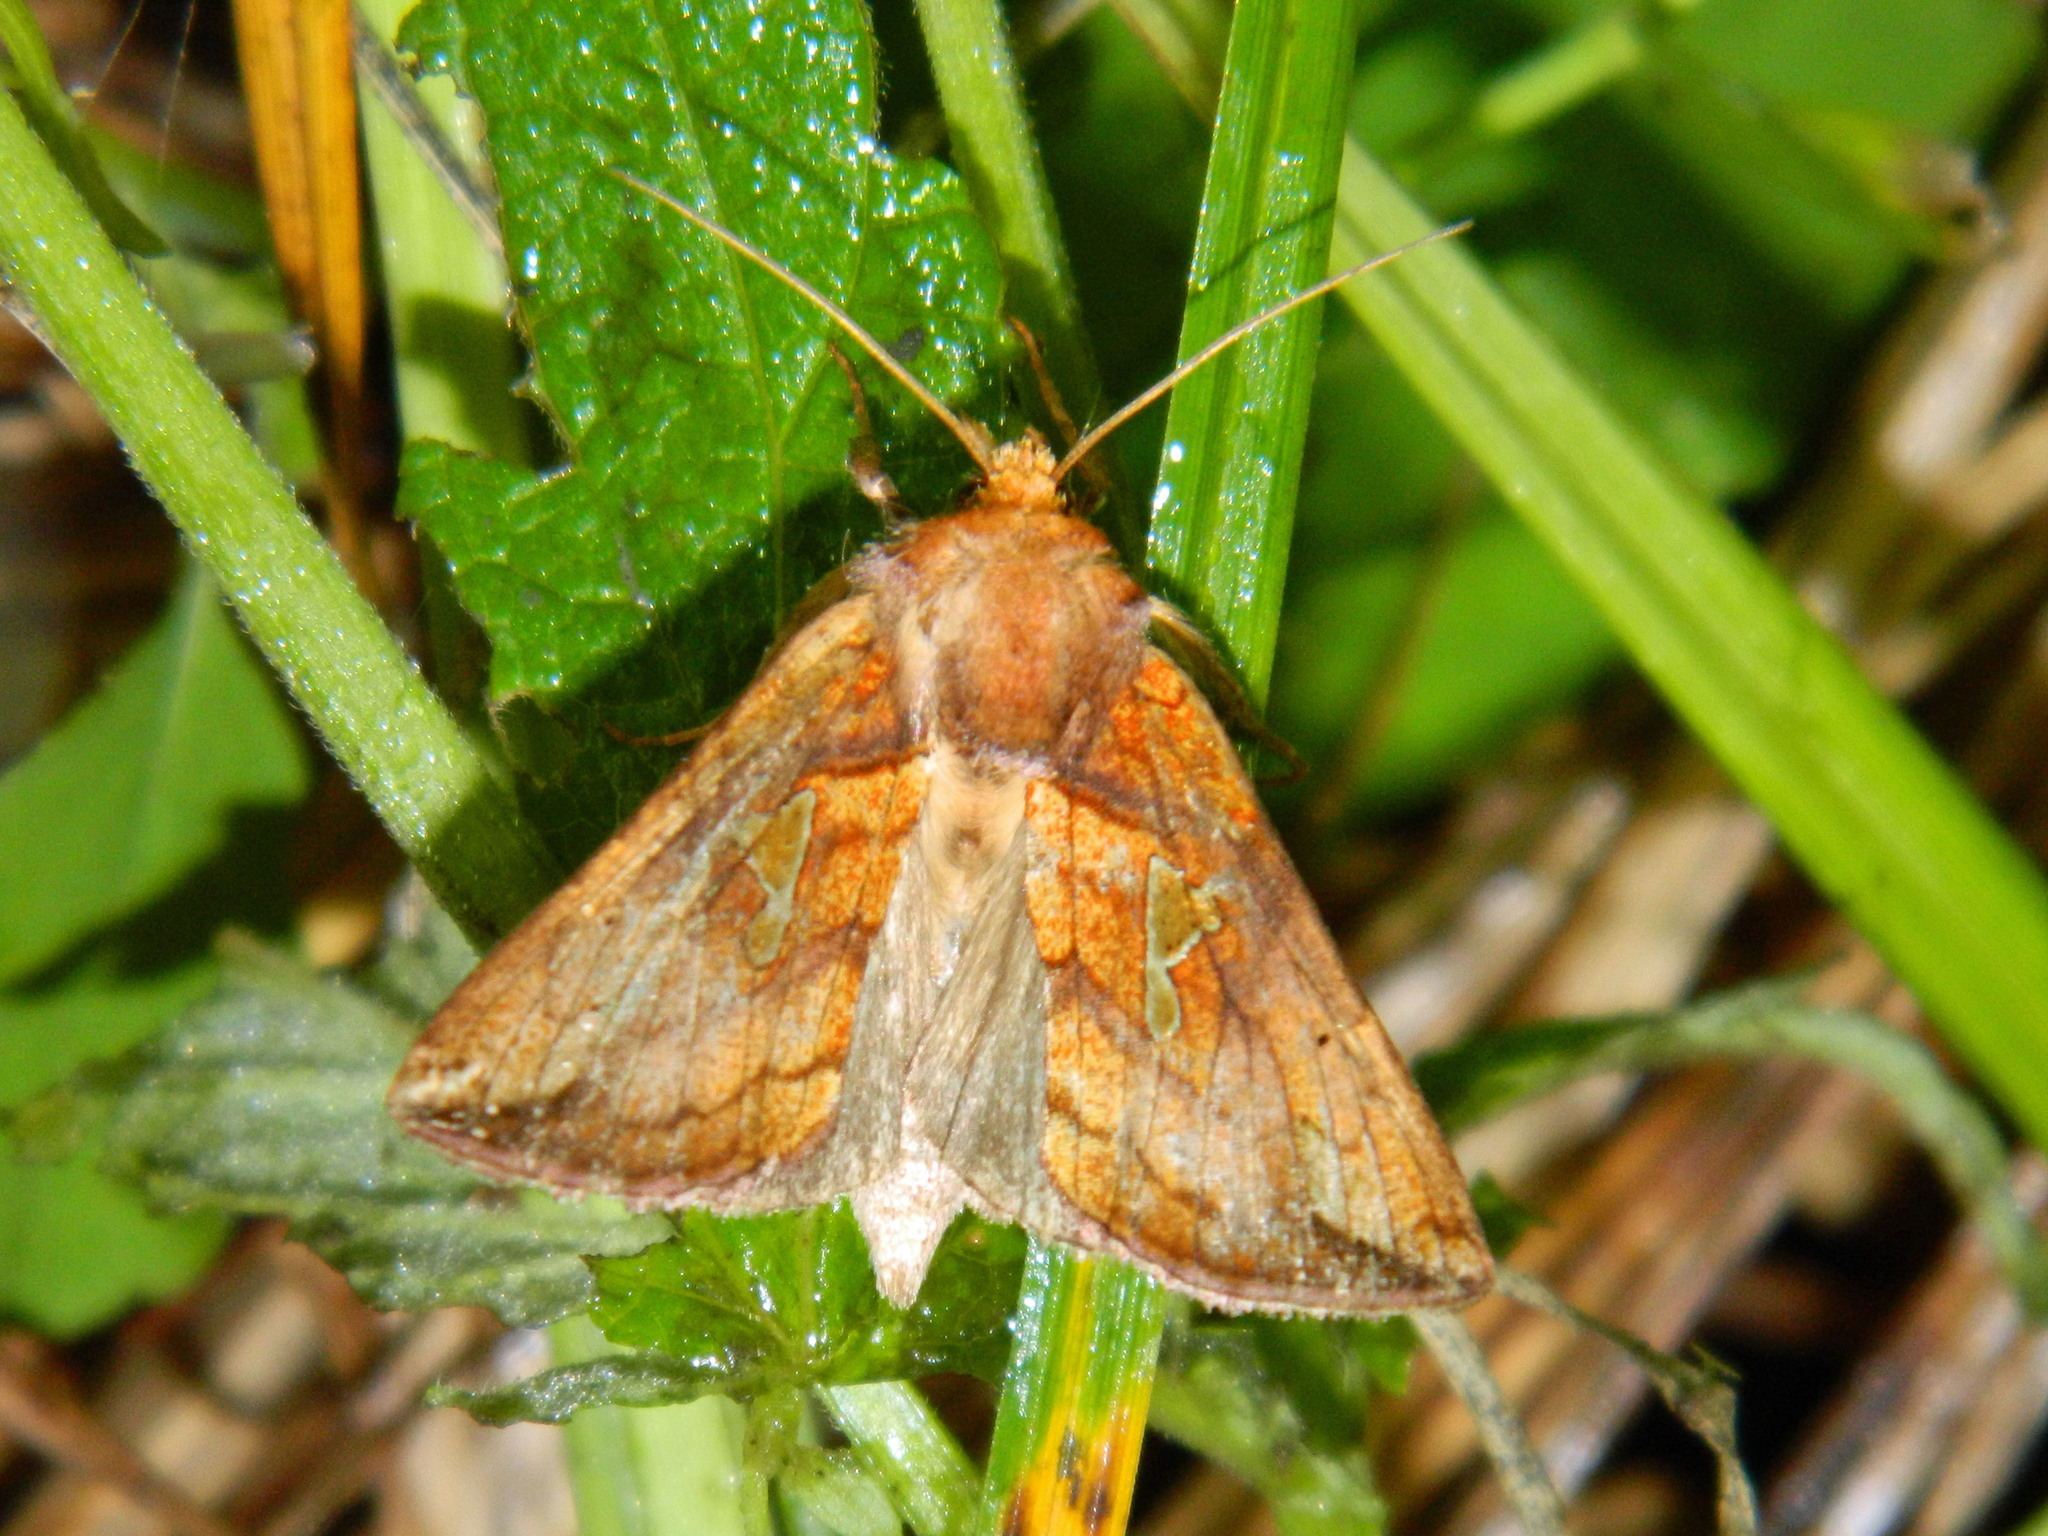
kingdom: Animalia
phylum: Arthropoda
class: Insecta
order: Lepidoptera
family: Noctuidae
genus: Plusia
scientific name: Plusia putnami
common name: Lempke's gold spot
